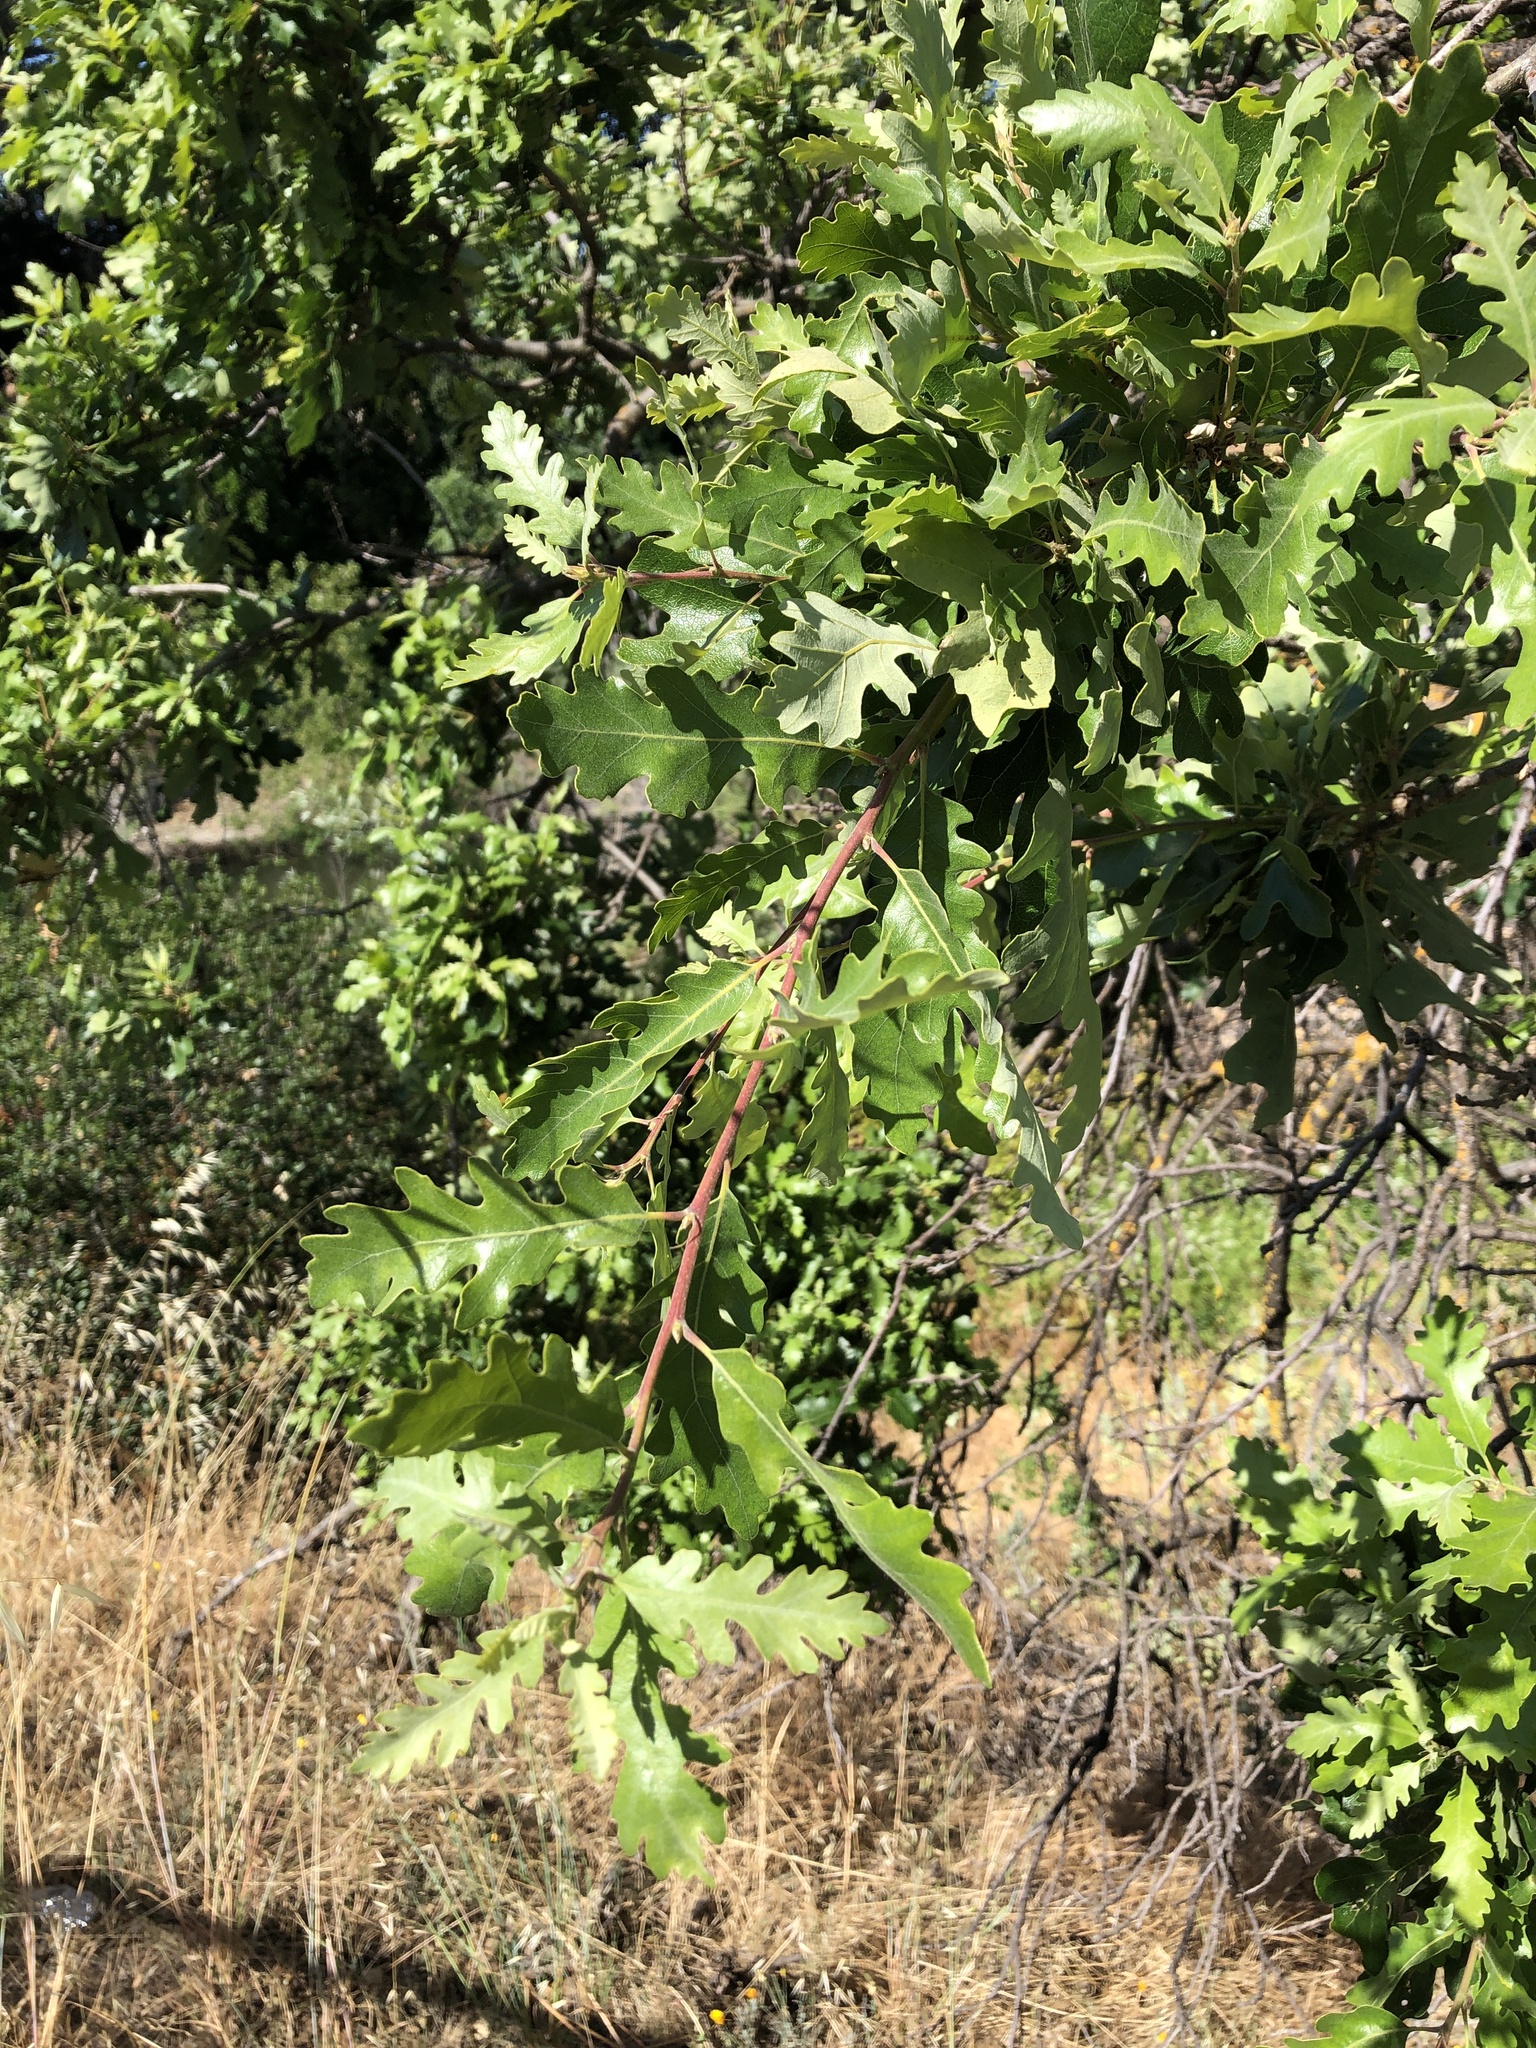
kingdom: Plantae
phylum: Tracheophyta
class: Magnoliopsida
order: Fagales
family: Fagaceae
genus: Quercus
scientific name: Quercus lobata
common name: Valley oak
